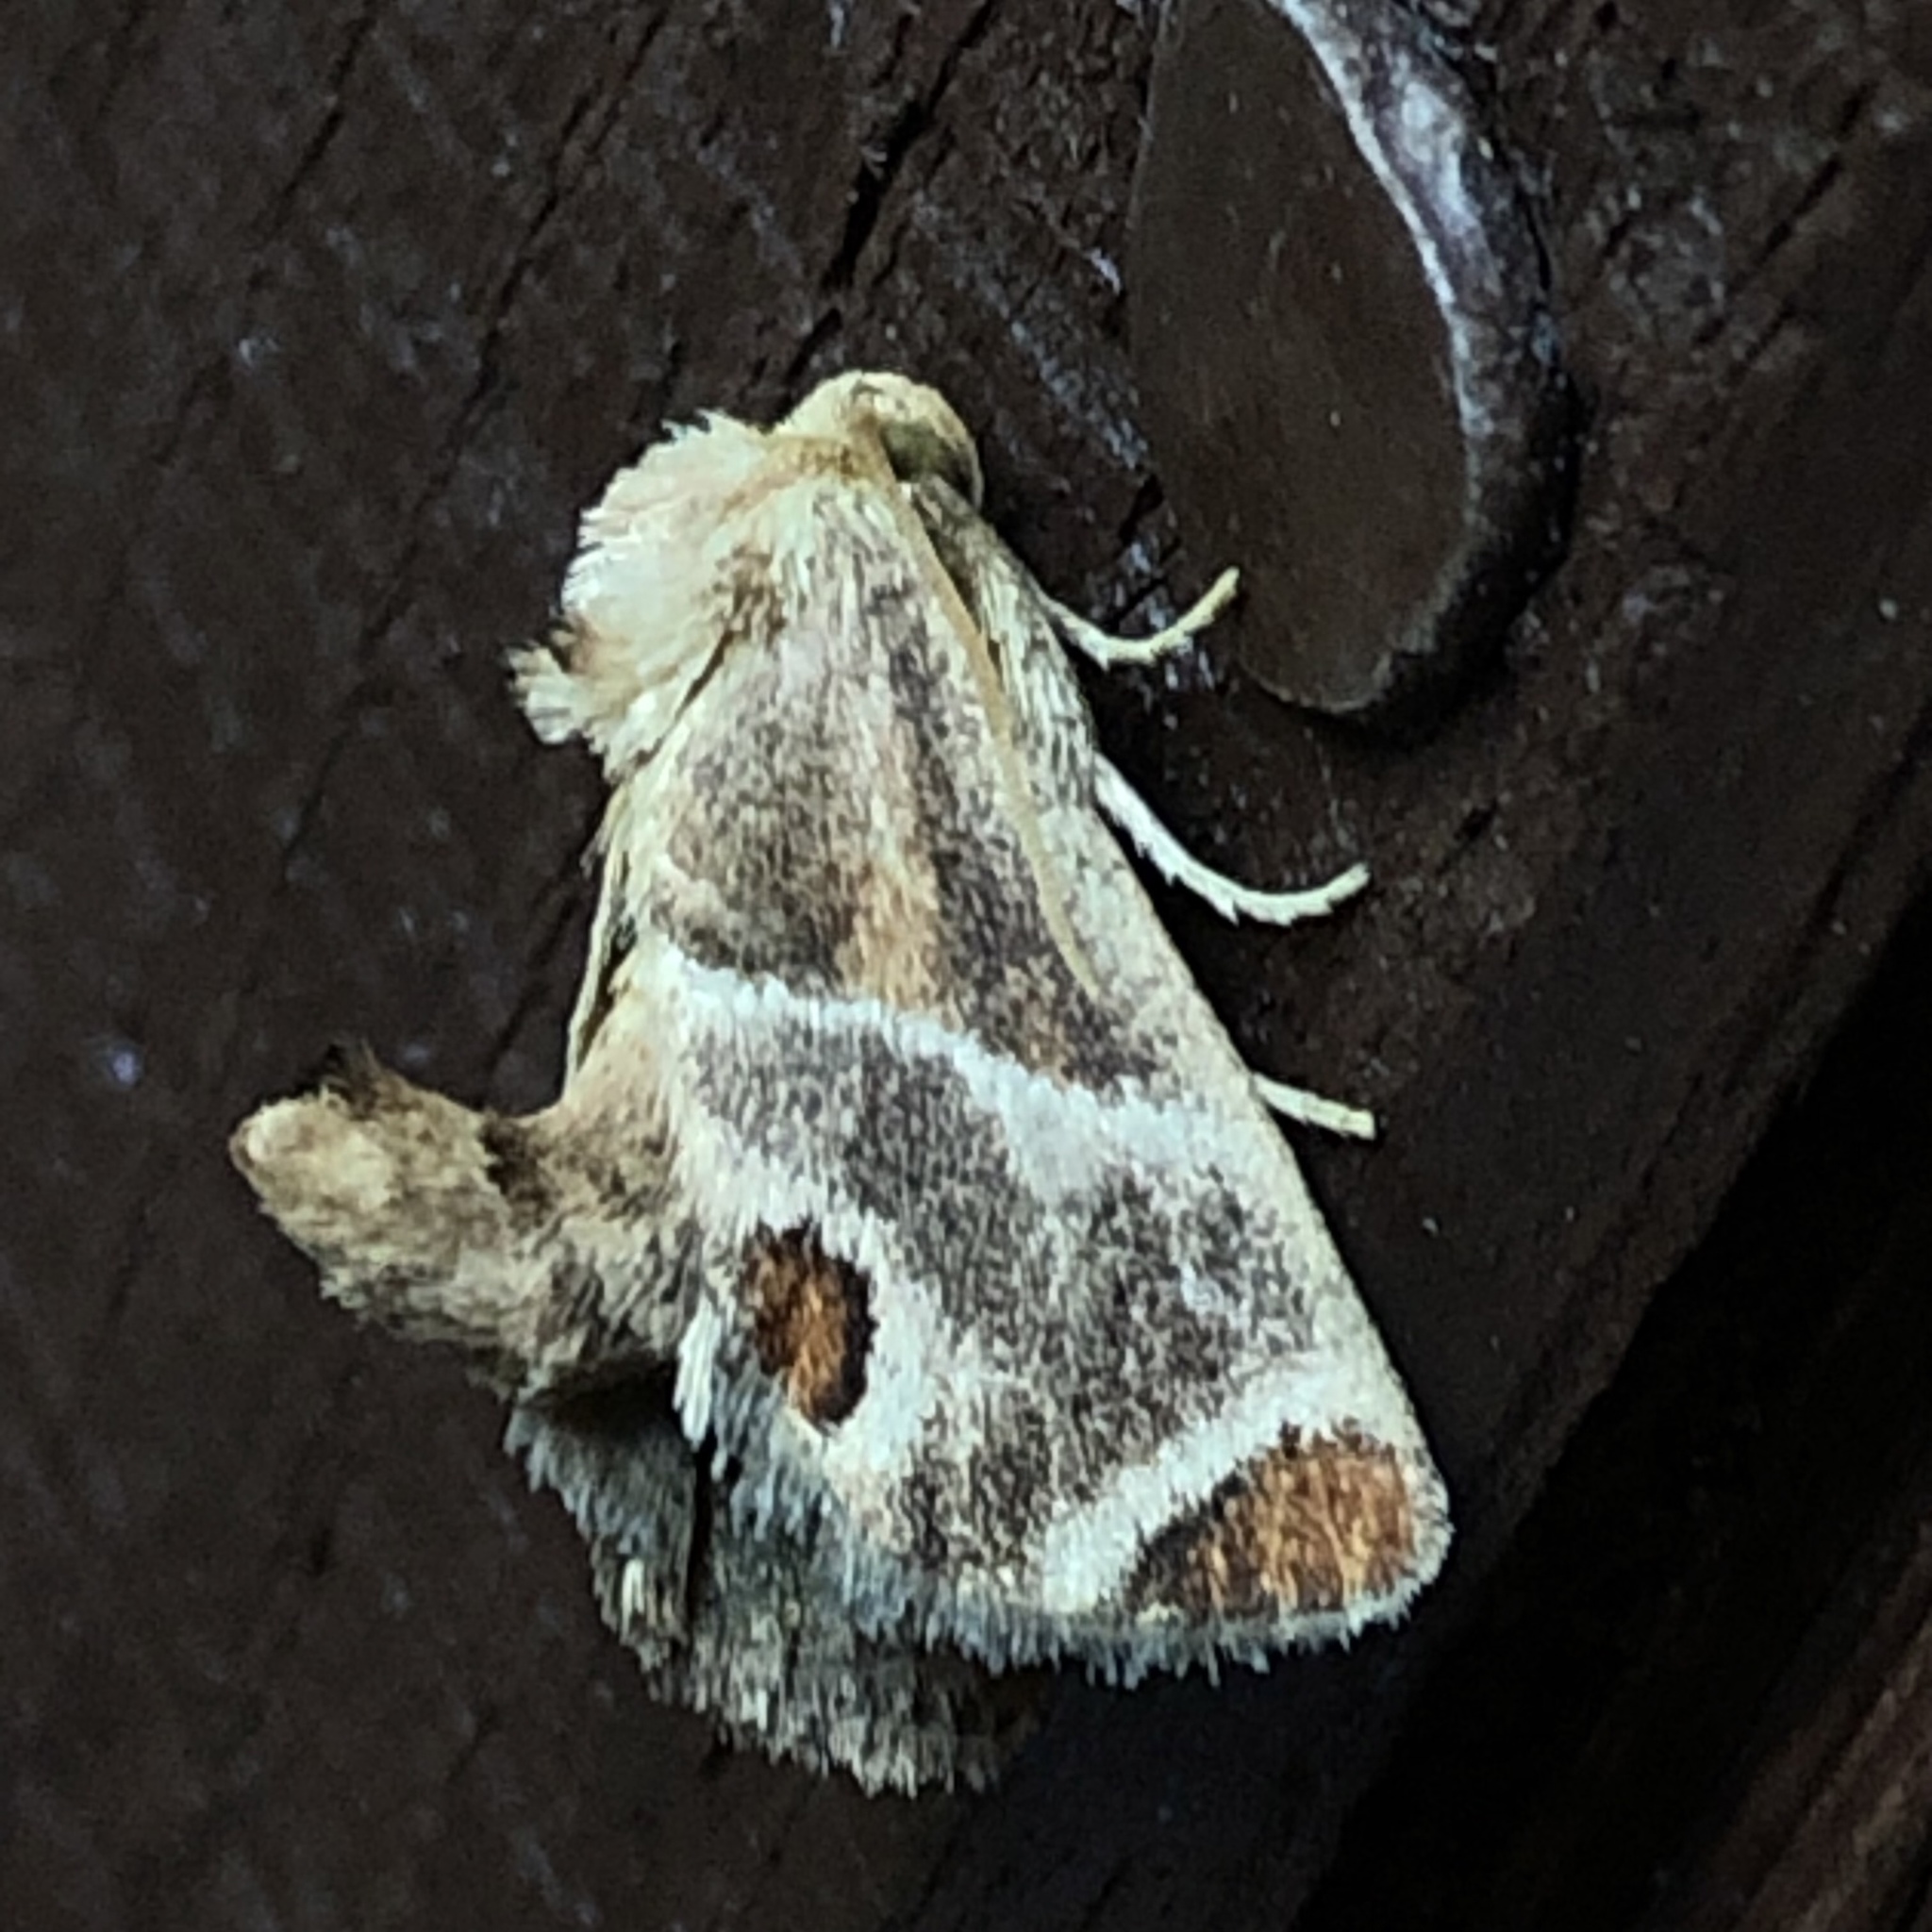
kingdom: Animalia
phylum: Arthropoda
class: Insecta
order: Lepidoptera
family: Limacodidae
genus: Apoda
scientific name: Apoda biguttata
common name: Shagreened slug moth
